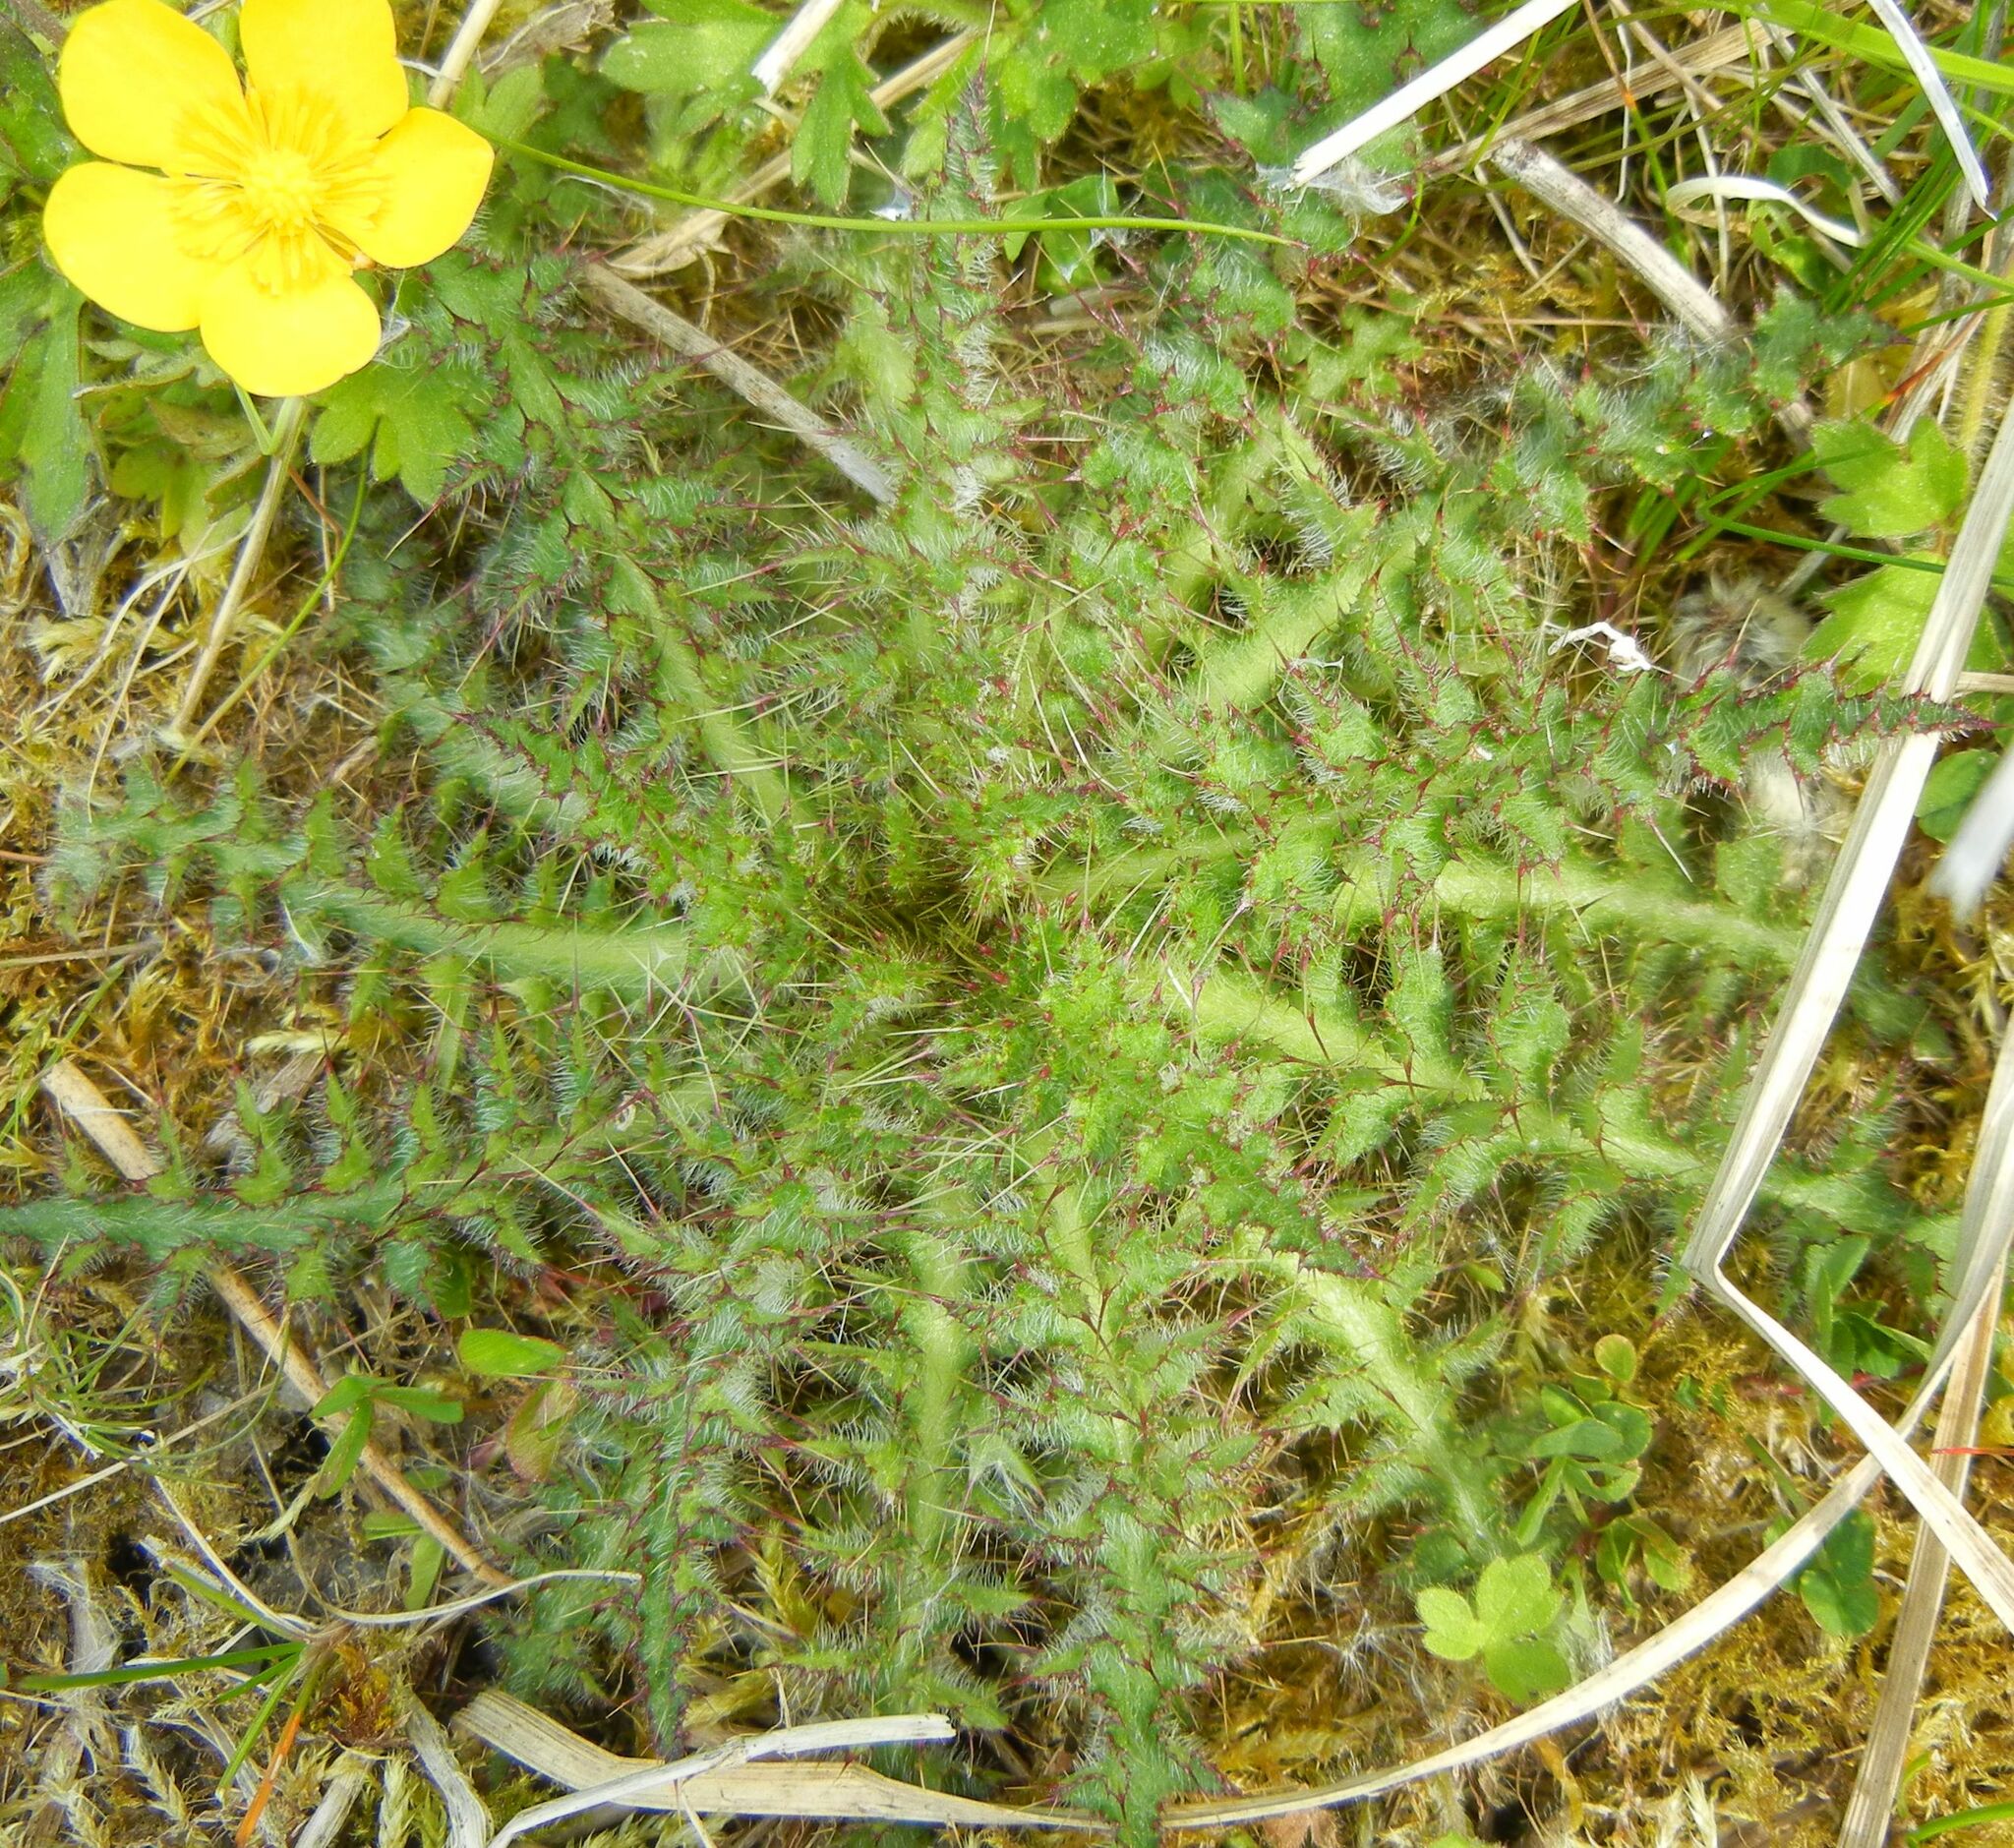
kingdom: Plantae
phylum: Tracheophyta
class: Magnoliopsida
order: Asterales
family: Asteraceae
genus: Cirsium
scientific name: Cirsium palustre
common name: Marsh thistle
